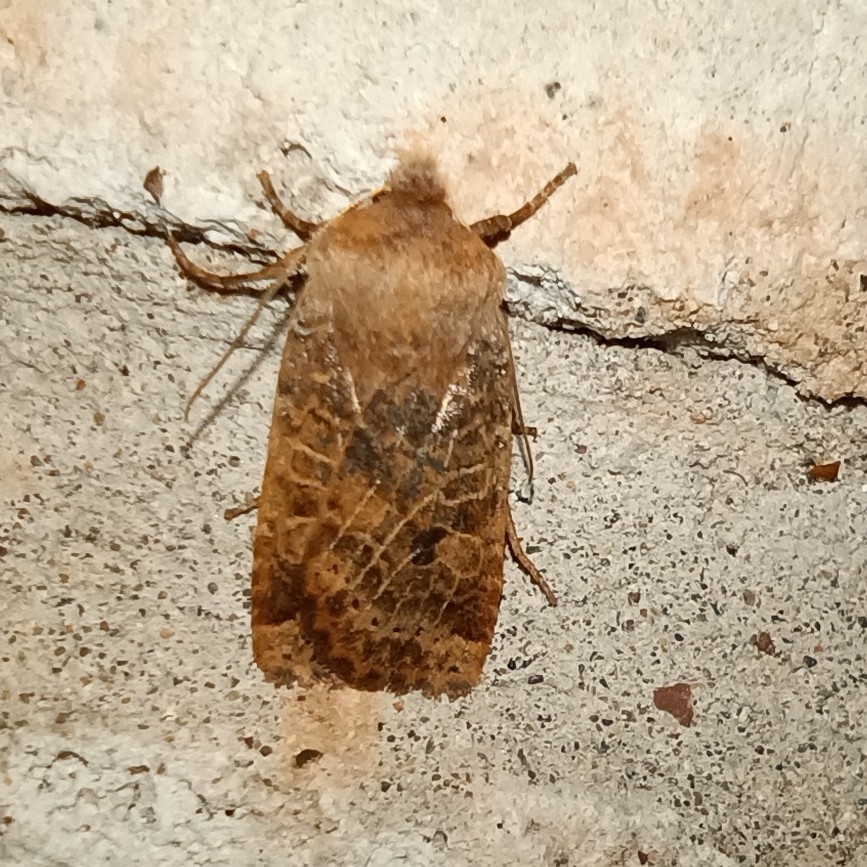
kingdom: Animalia
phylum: Arthropoda
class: Insecta
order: Lepidoptera
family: Noctuidae
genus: Conistra
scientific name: Conistra vaccinii
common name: Chestnut
